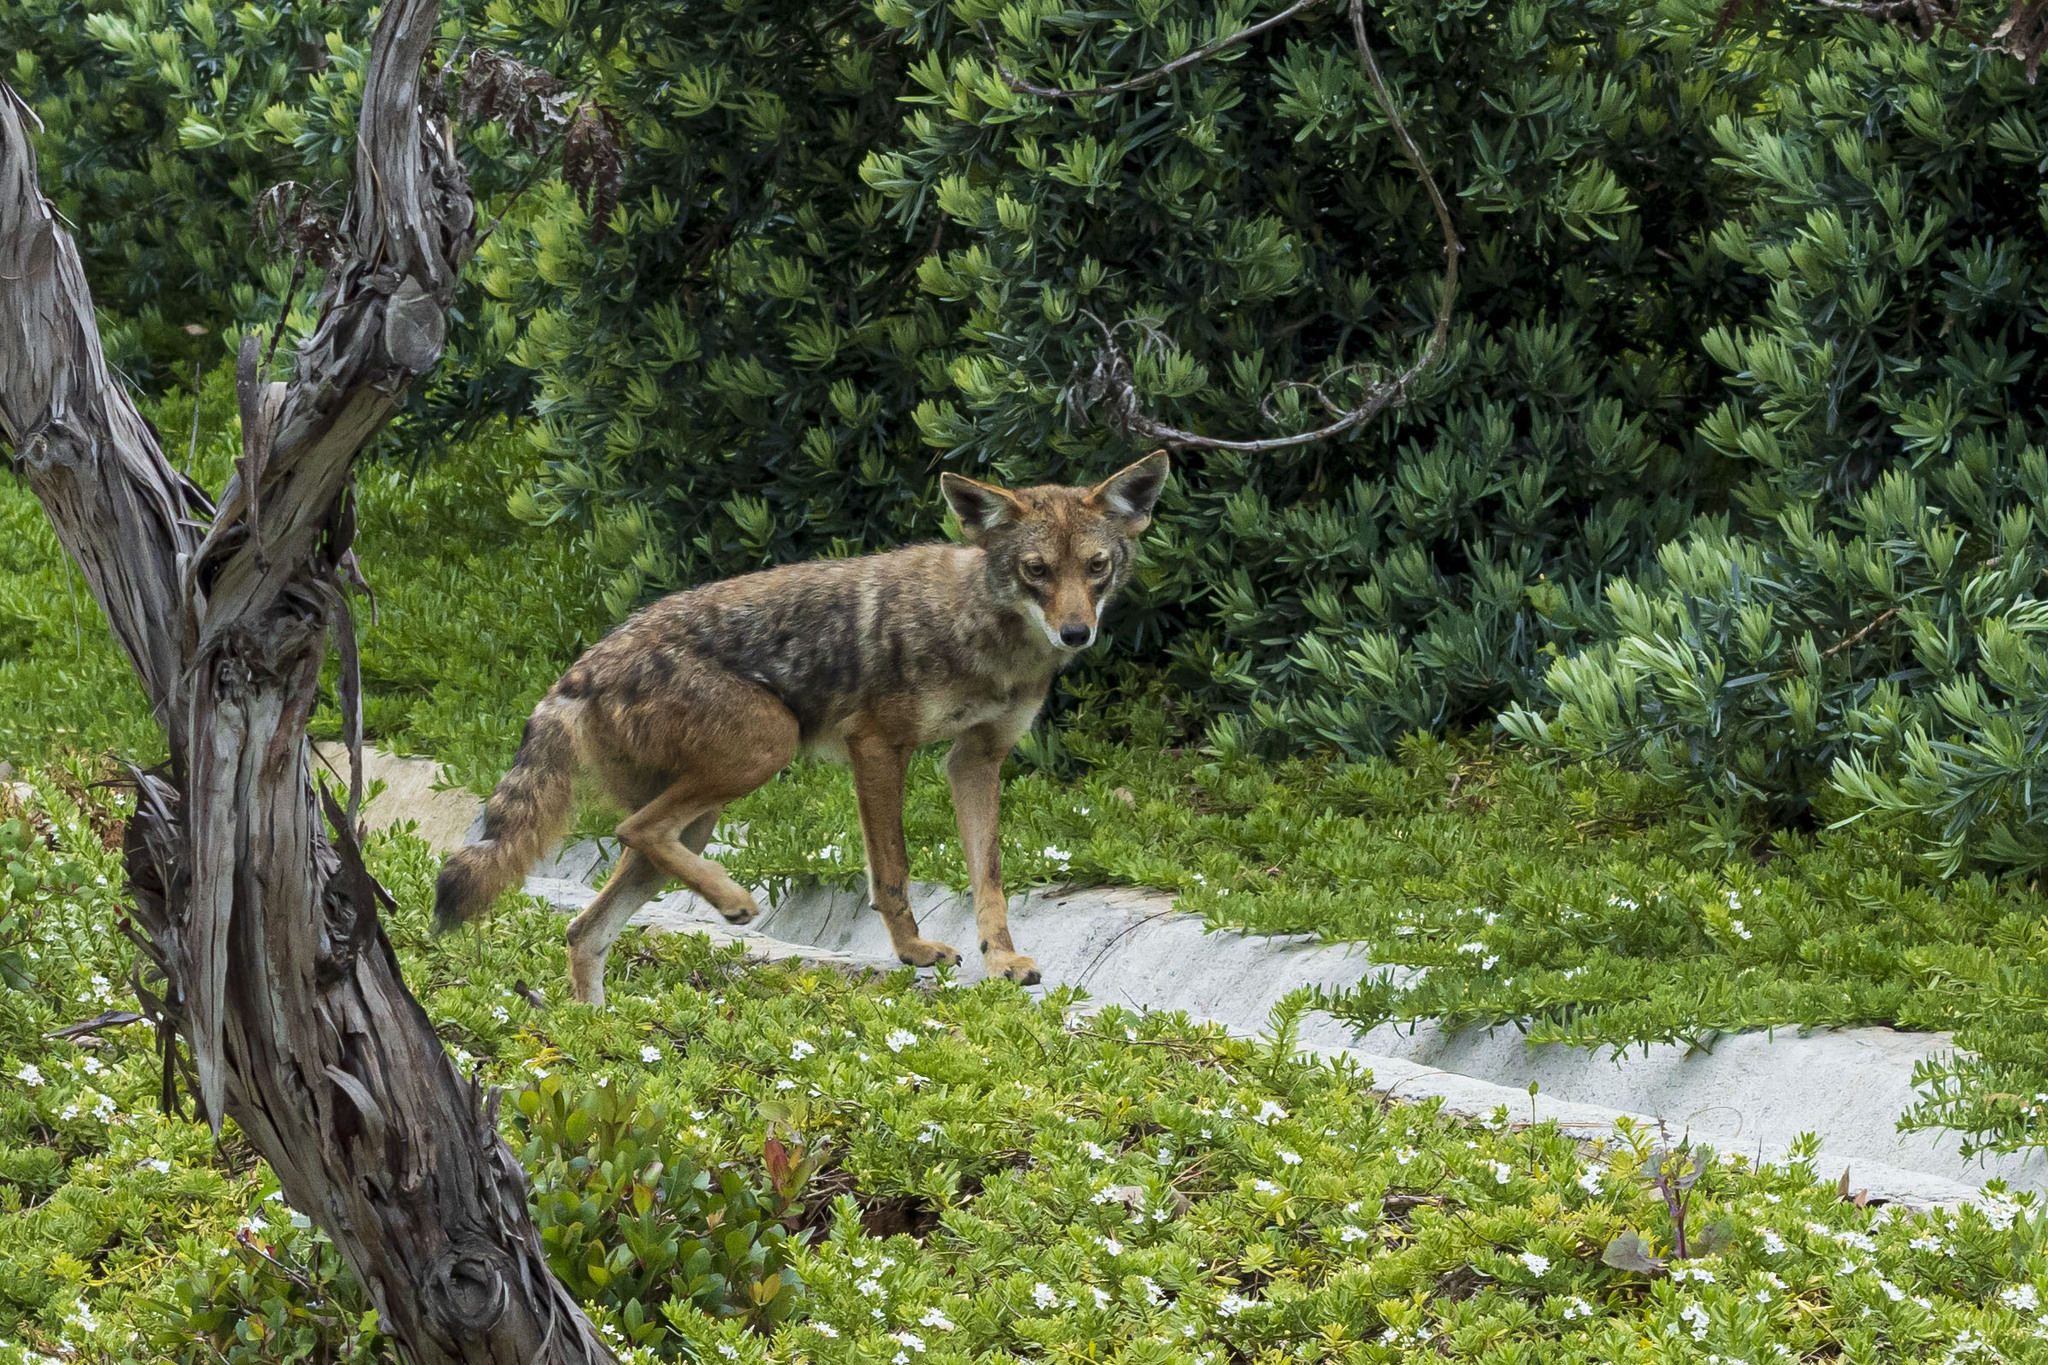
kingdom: Animalia
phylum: Chordata
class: Mammalia
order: Carnivora
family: Canidae
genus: Canis
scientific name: Canis latrans
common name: Coyote
